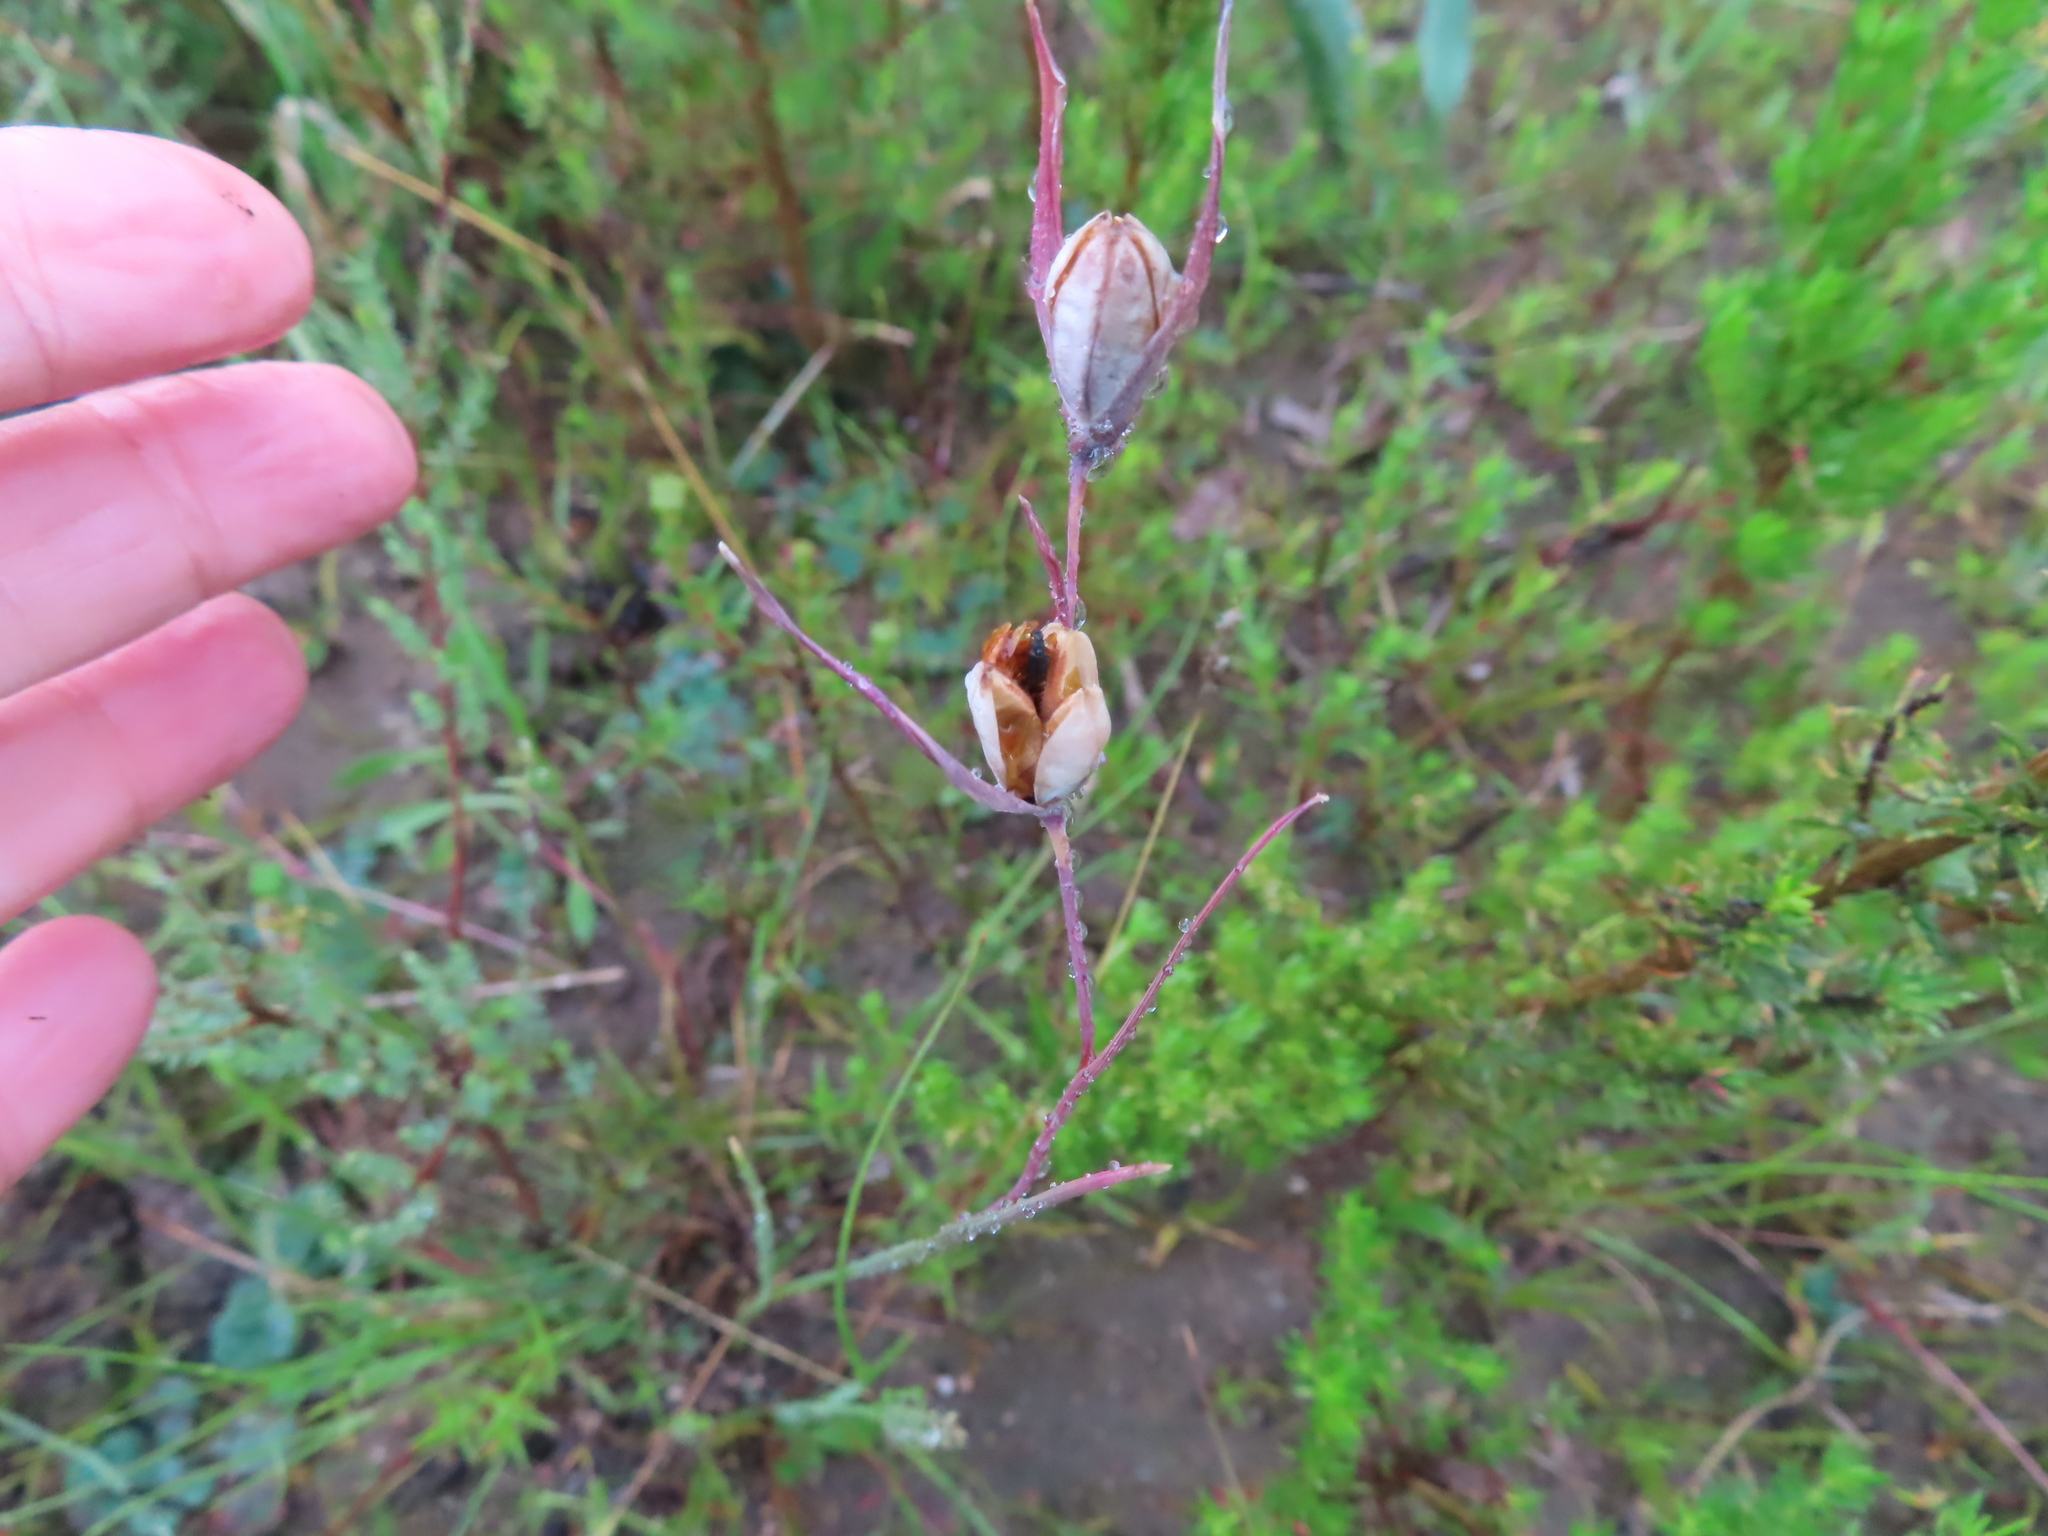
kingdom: Plantae
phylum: Tracheophyta
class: Liliopsida
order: Asparagales
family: Iridaceae
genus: Gladiolus
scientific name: Gladiolus recurvus
